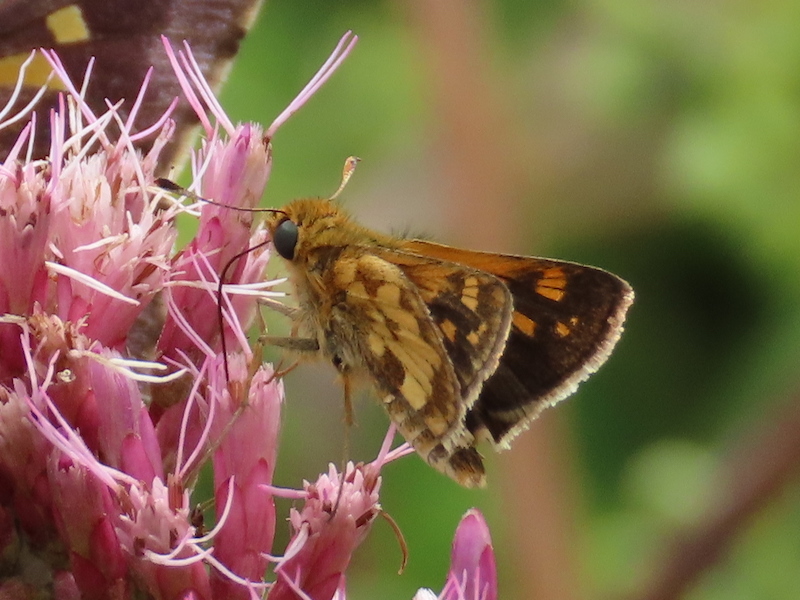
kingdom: Animalia
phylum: Arthropoda
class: Insecta
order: Lepidoptera
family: Hesperiidae
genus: Polites
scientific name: Polites coras
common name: Peck's skipper
